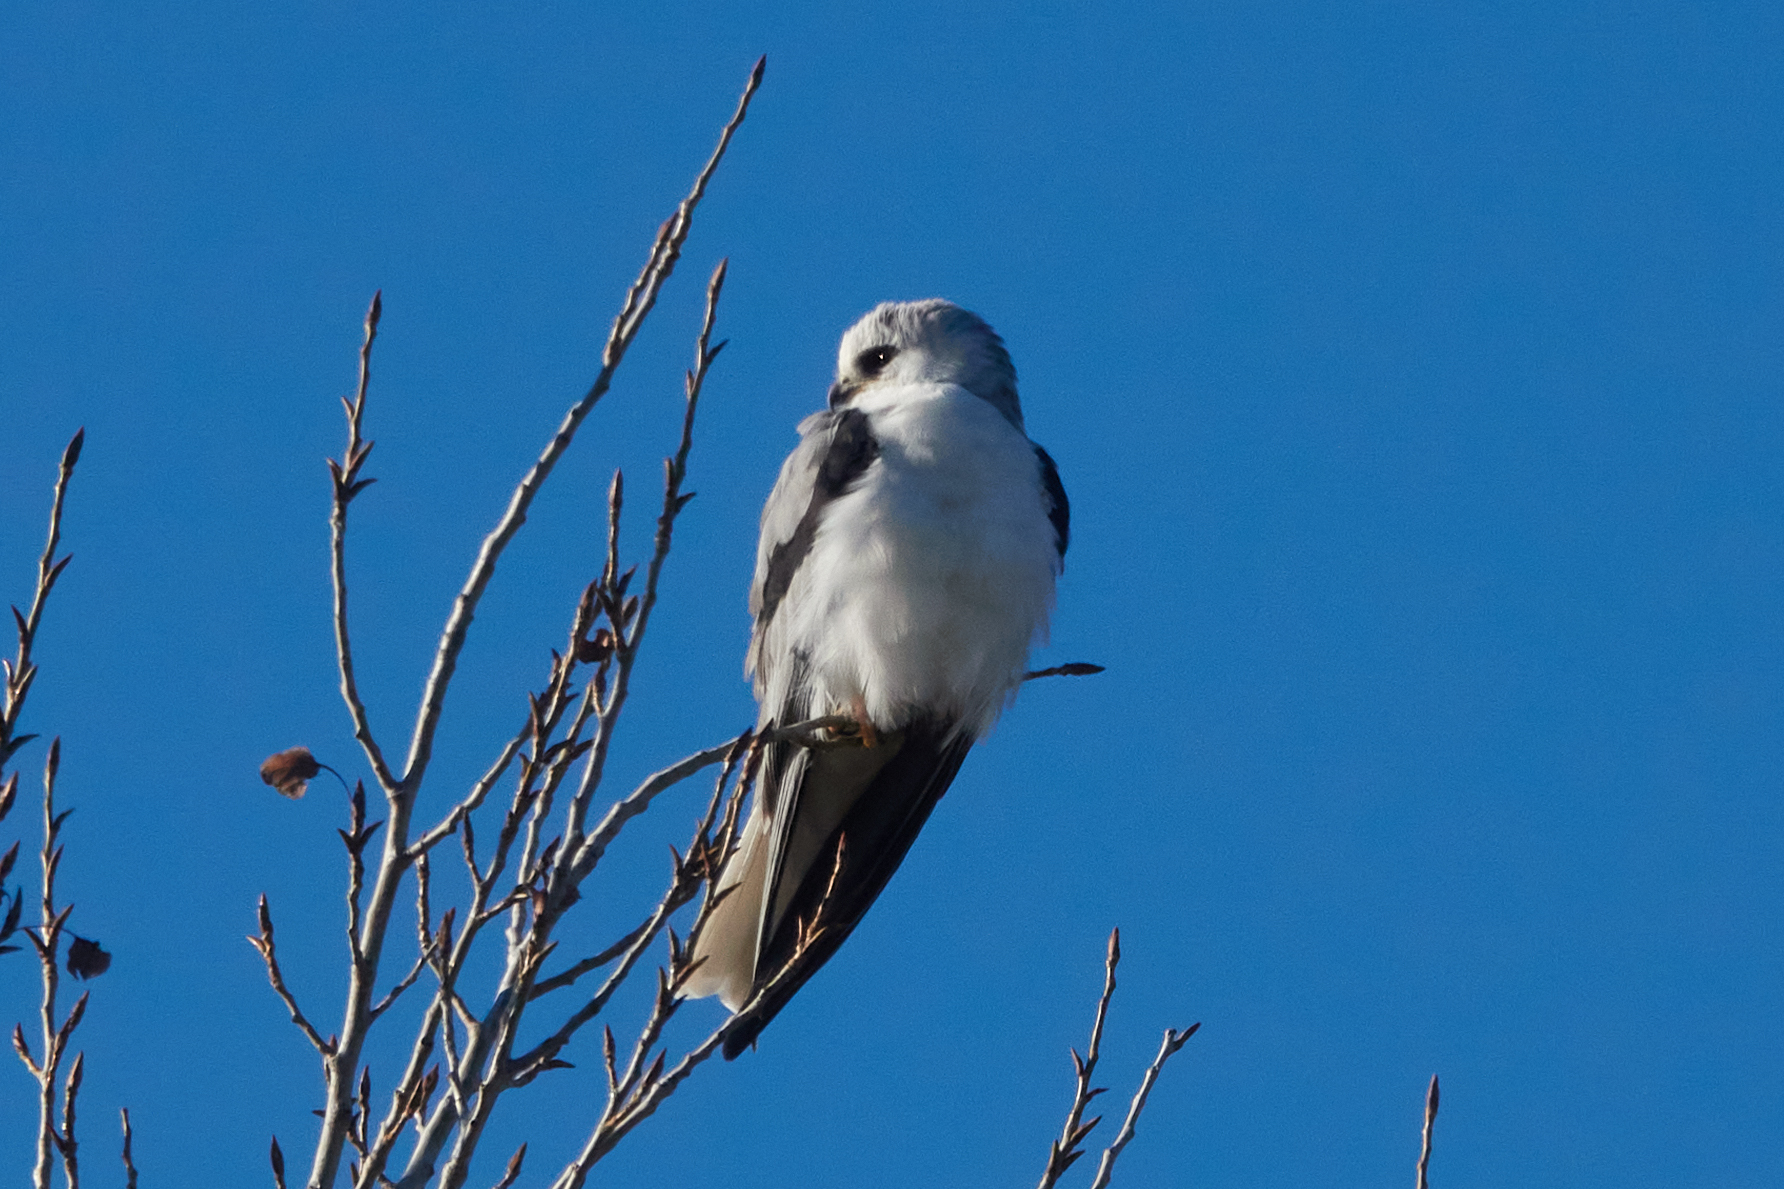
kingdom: Animalia
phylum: Chordata
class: Aves
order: Accipitriformes
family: Accipitridae
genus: Elanus
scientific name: Elanus leucurus
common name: White-tailed kite
